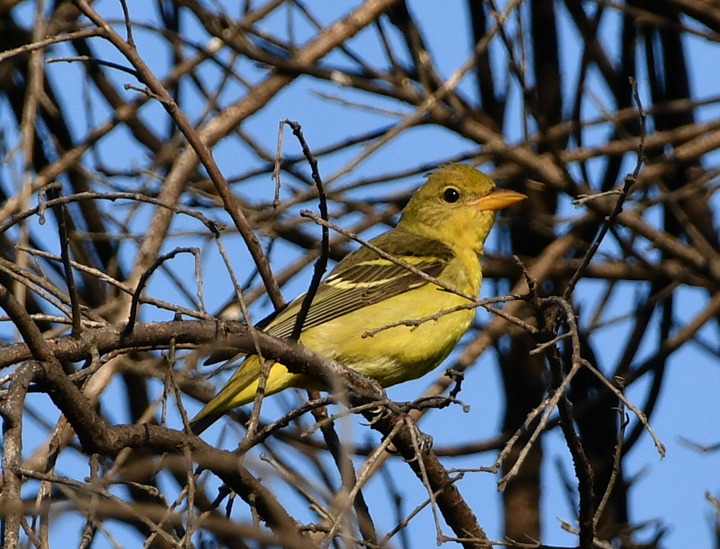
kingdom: Animalia
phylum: Chordata
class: Aves
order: Passeriformes
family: Cardinalidae
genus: Piranga
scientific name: Piranga ludoviciana
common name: Western tanager
